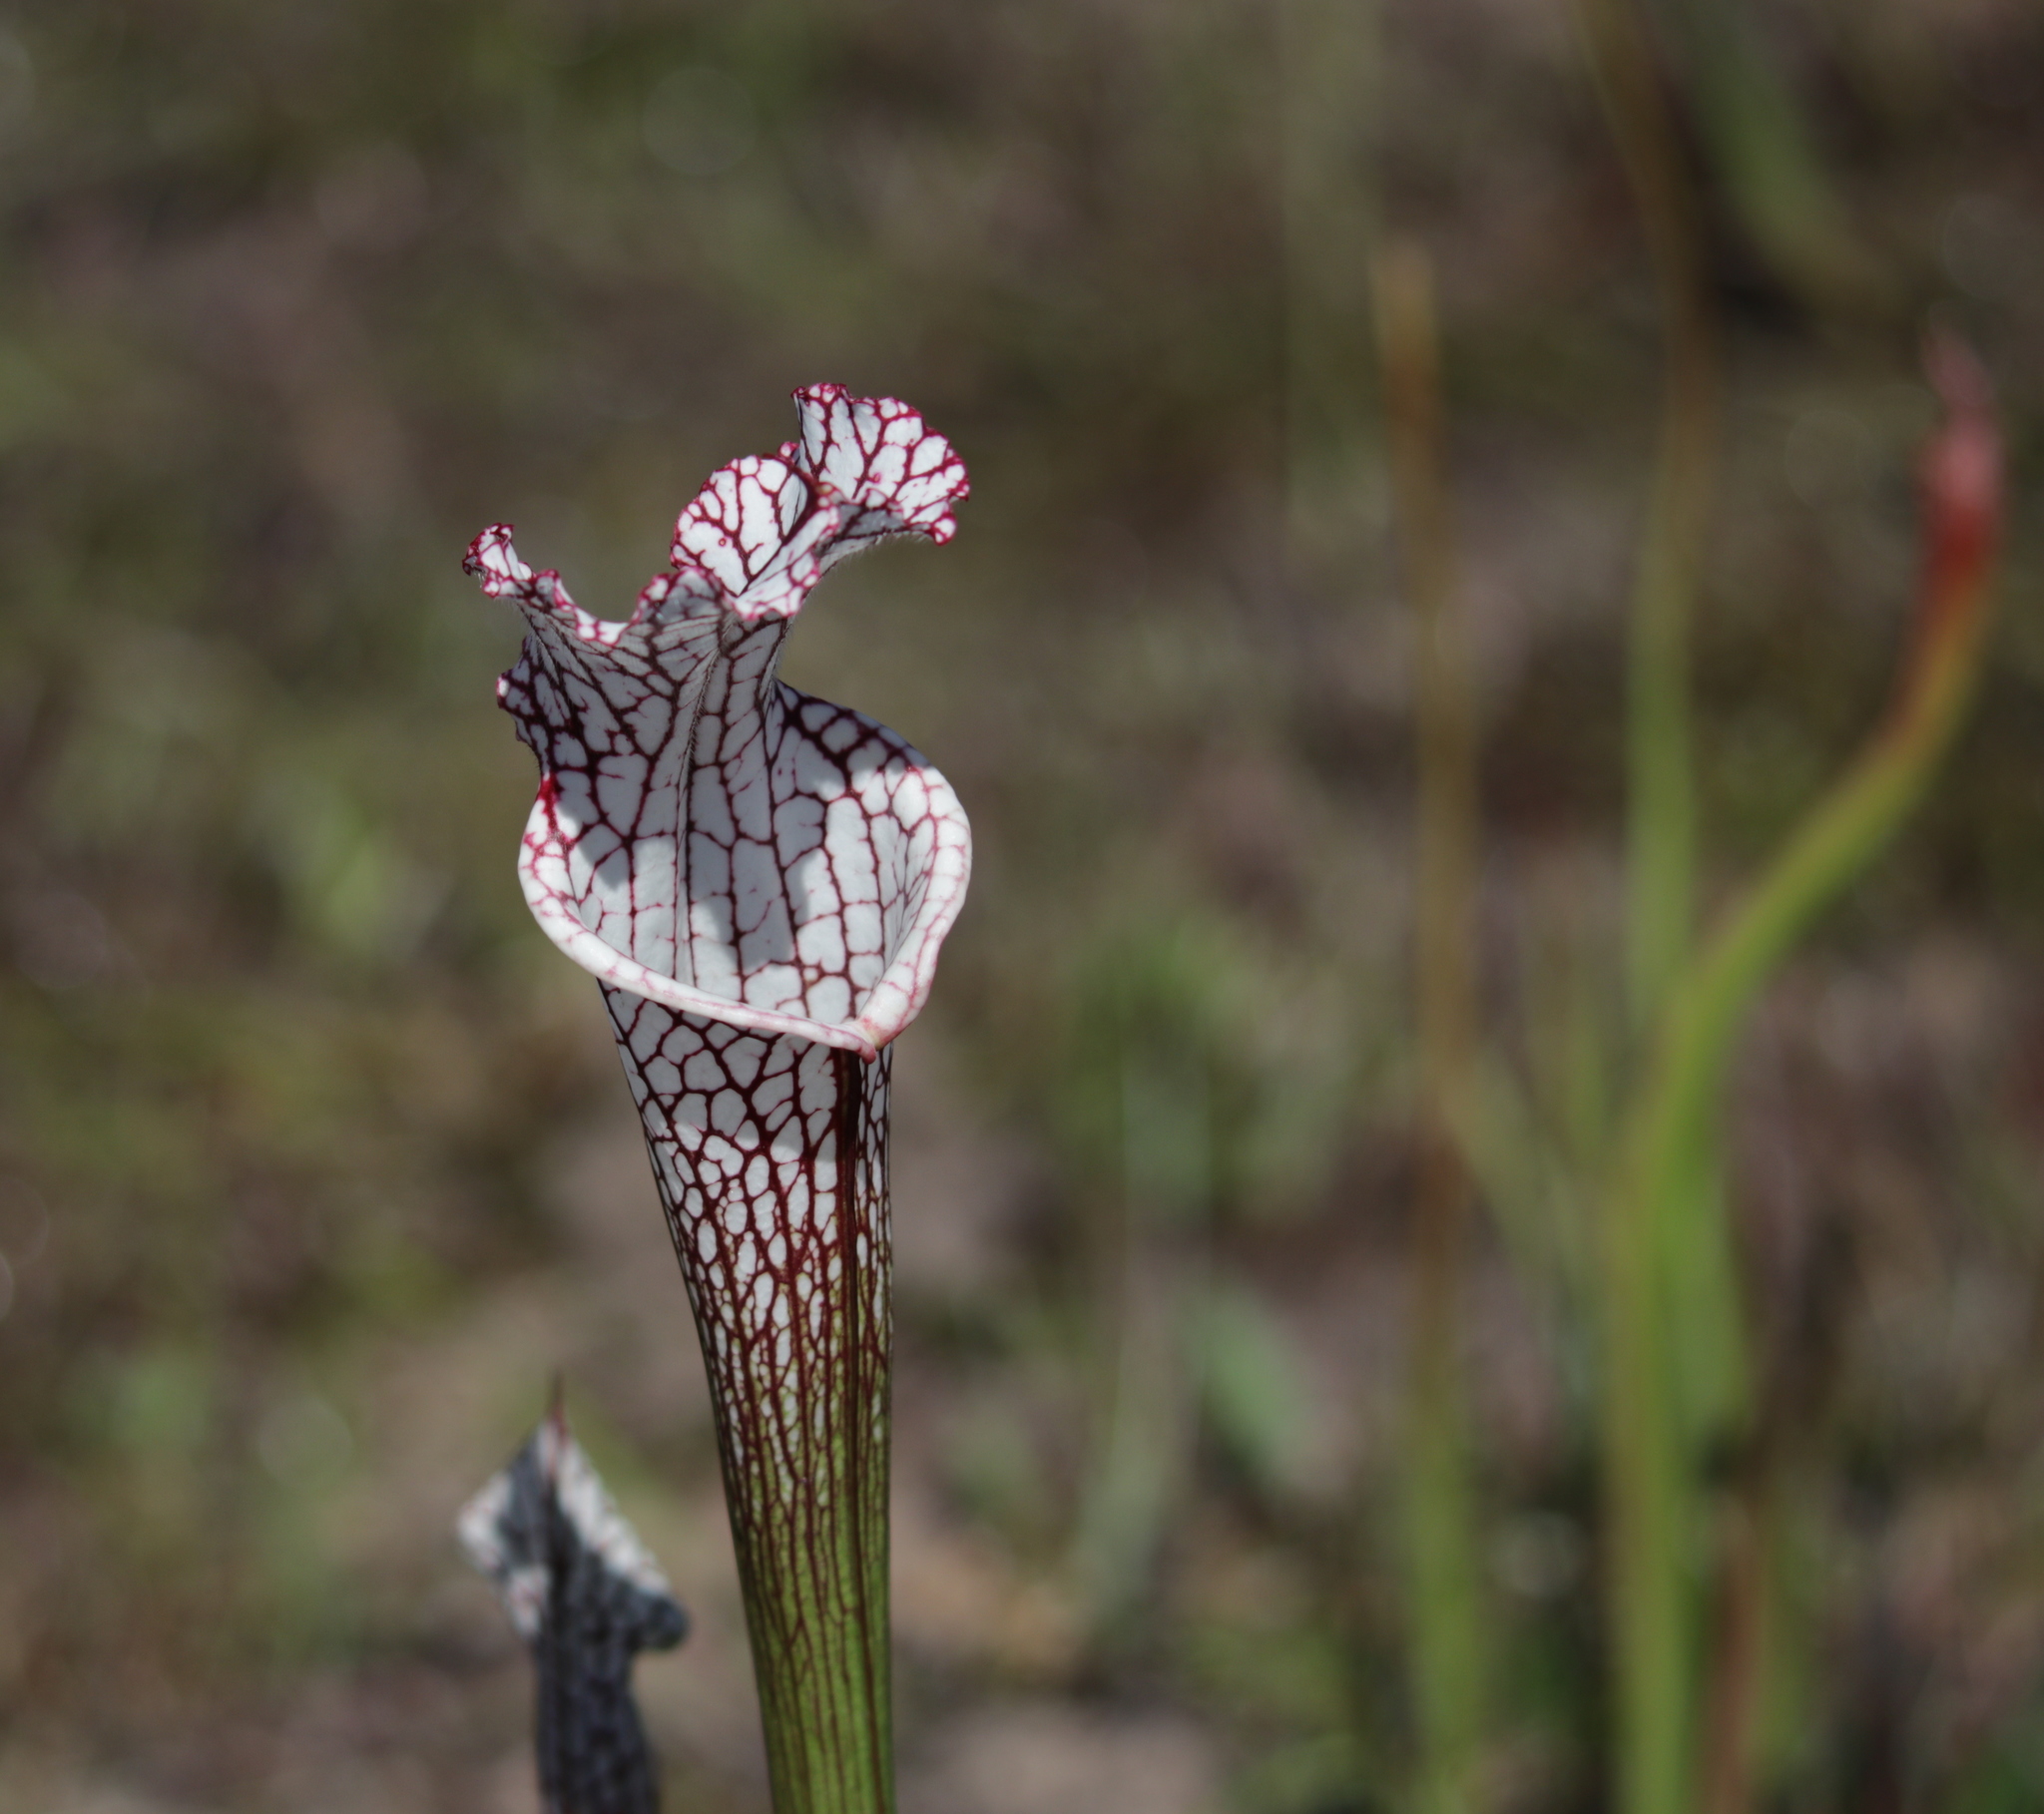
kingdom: Plantae
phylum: Tracheophyta
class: Magnoliopsida
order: Ericales
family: Sarraceniaceae
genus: Sarracenia
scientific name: Sarracenia leucophylla
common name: Purple trumpetleaf
